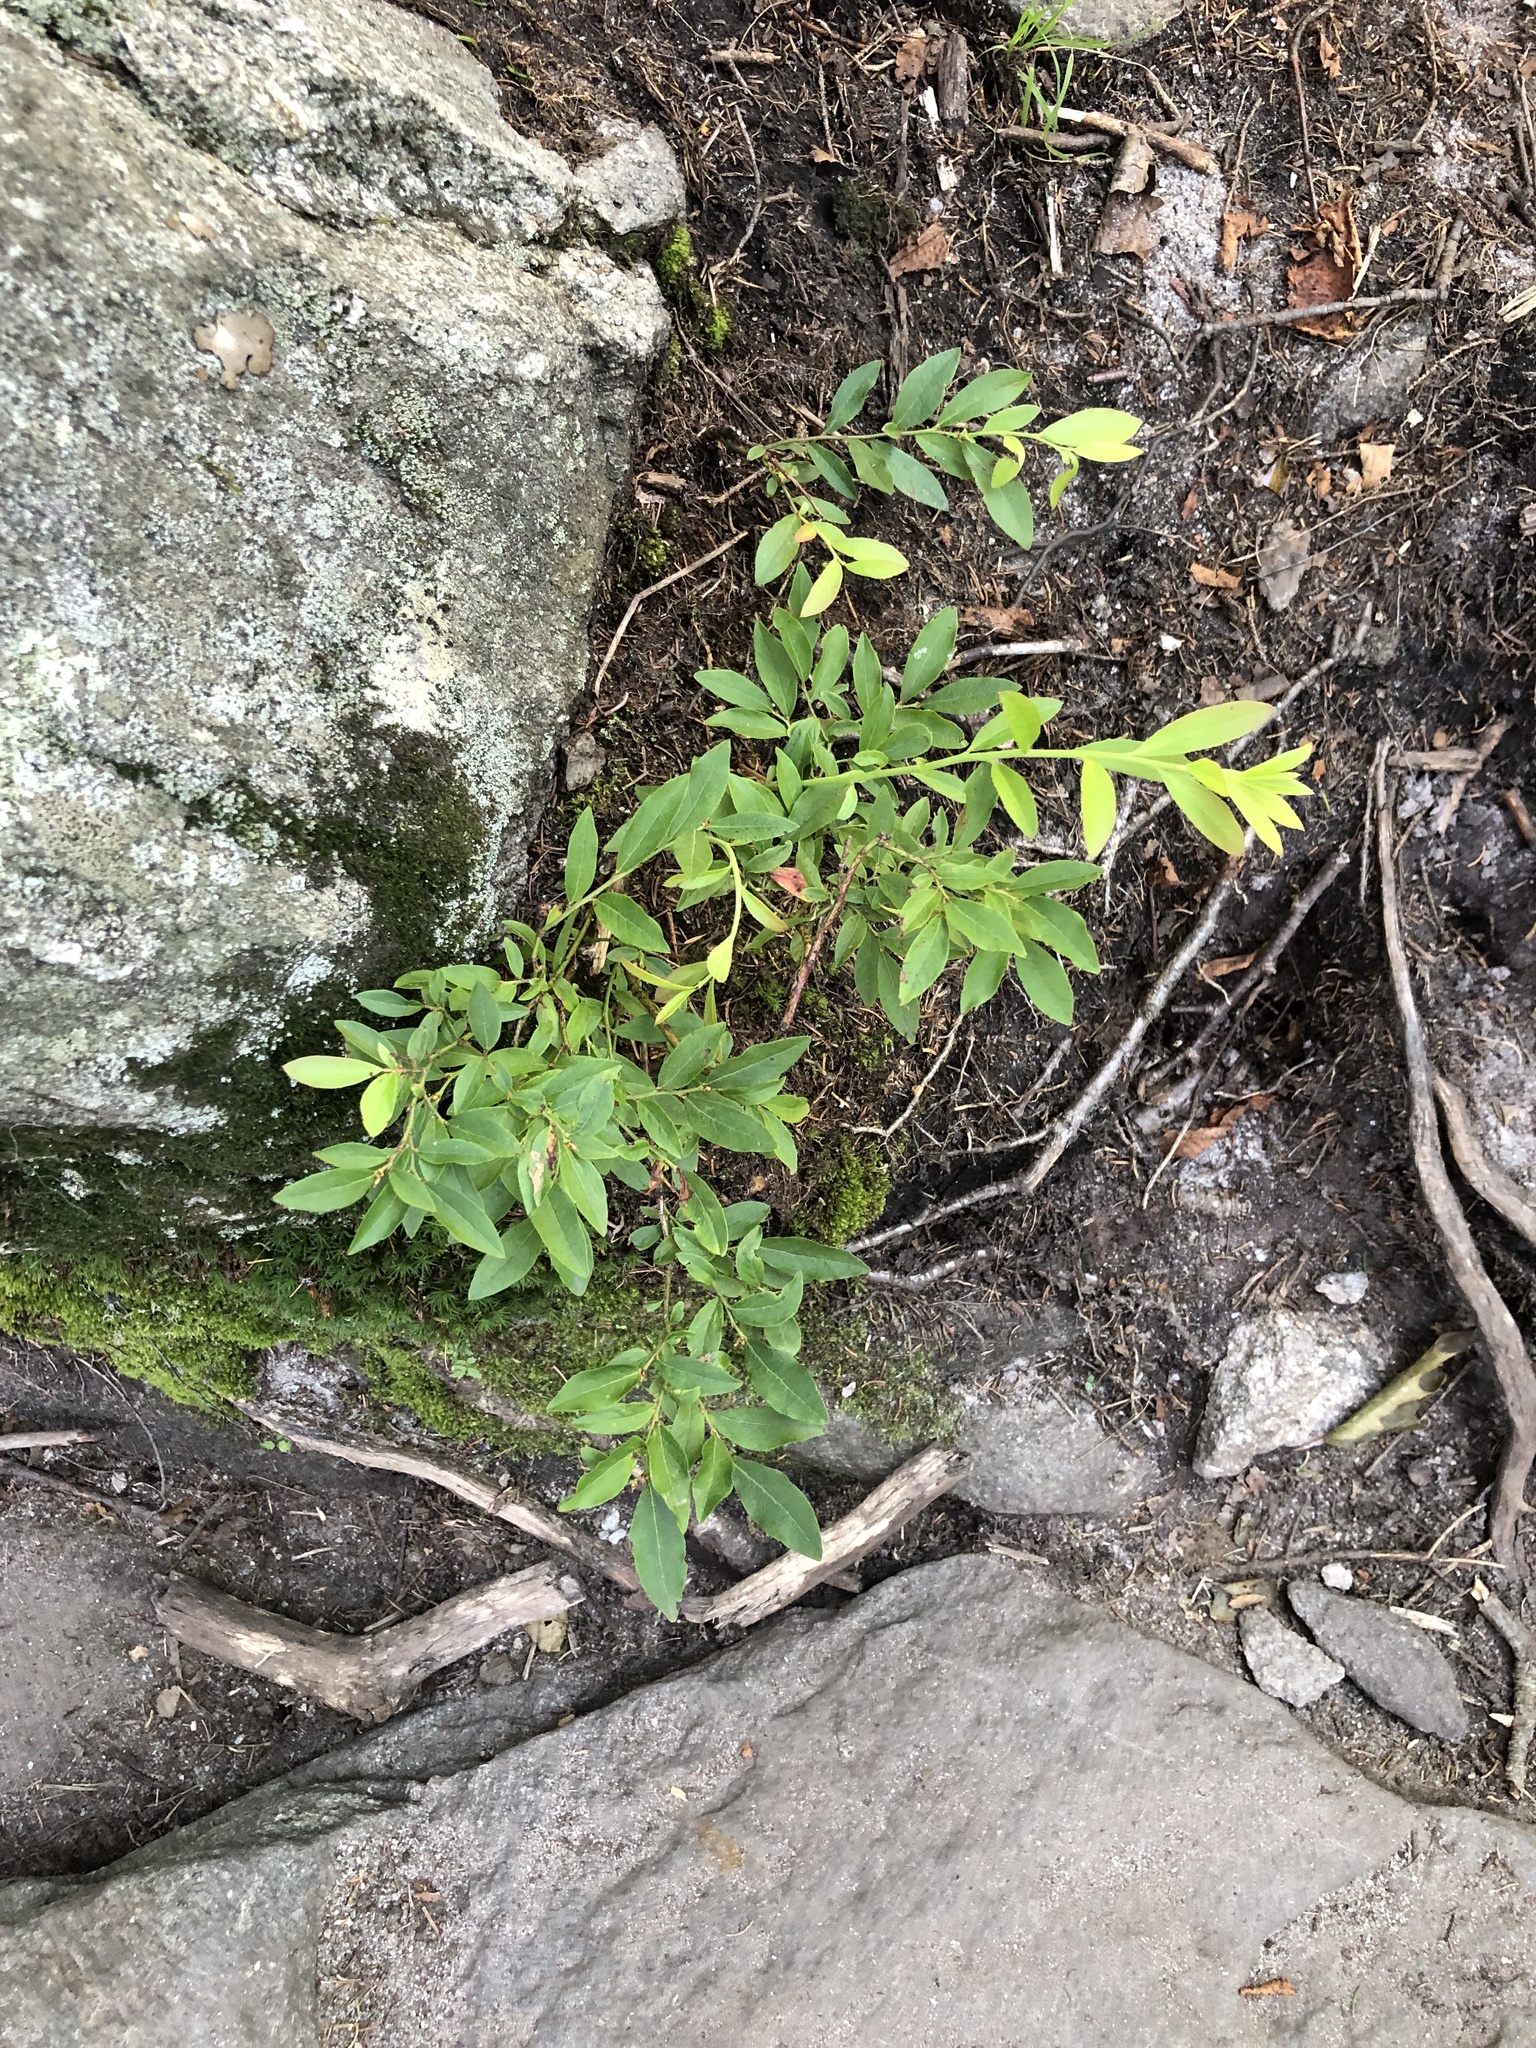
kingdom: Plantae
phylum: Tracheophyta
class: Magnoliopsida
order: Ericales
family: Ericaceae
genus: Vaccinium
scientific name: Vaccinium angustifolium
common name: Early lowbush blueberry
